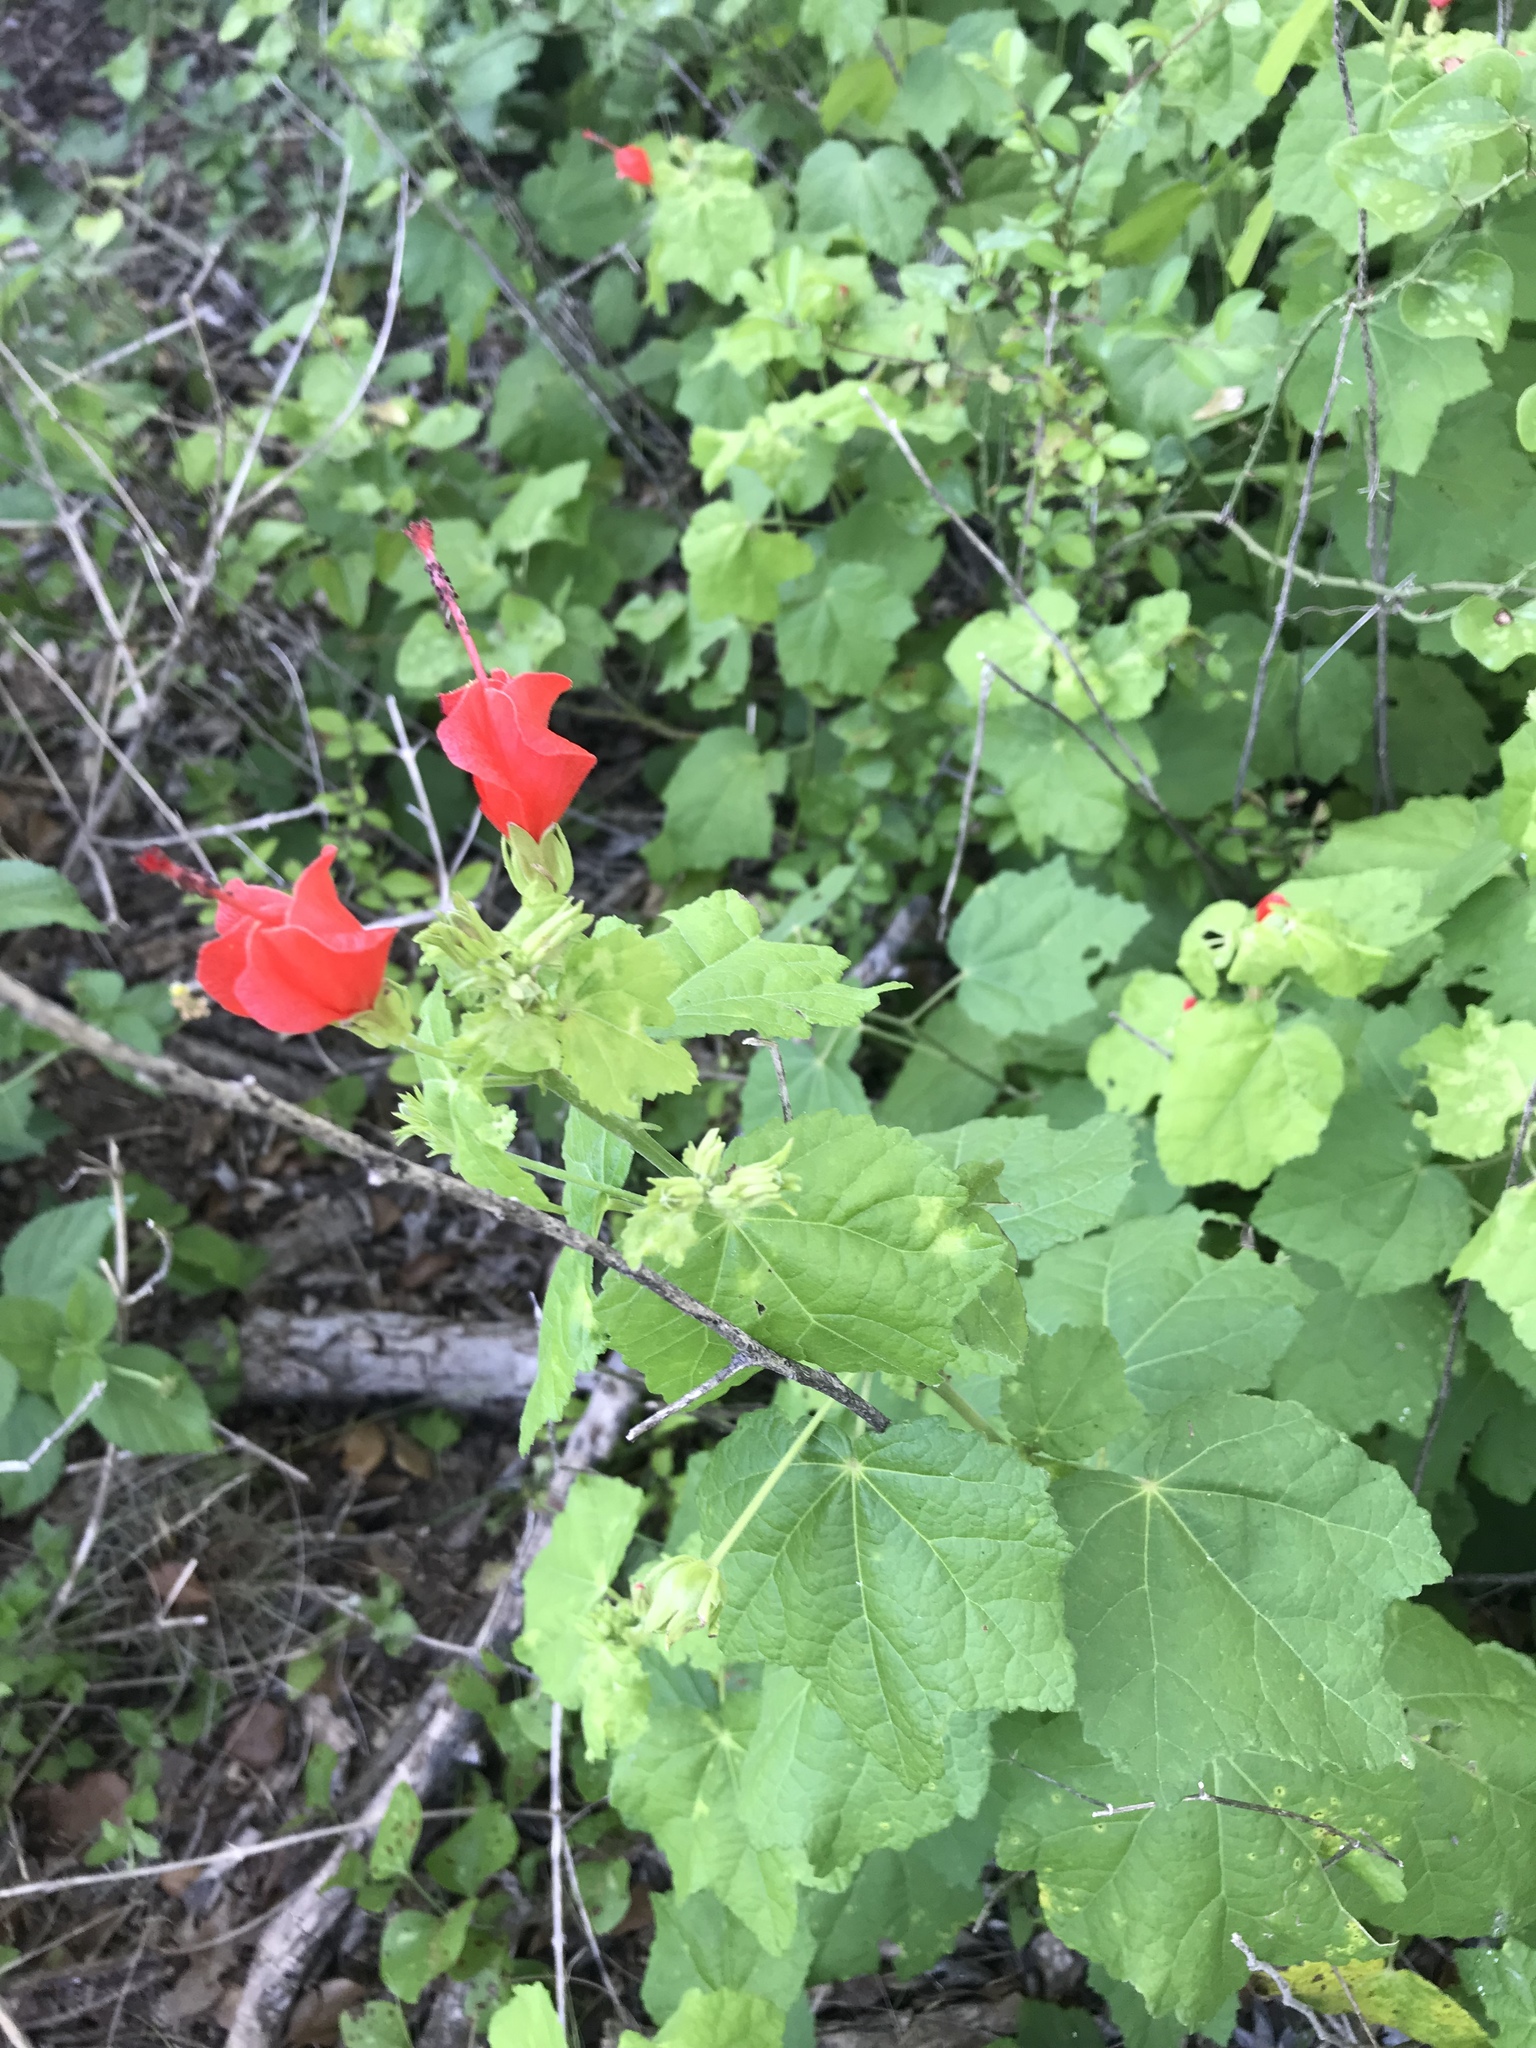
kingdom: Plantae
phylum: Tracheophyta
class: Magnoliopsida
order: Malvales
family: Malvaceae
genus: Malvaviscus
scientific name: Malvaviscus arboreus
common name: Wax mallow
